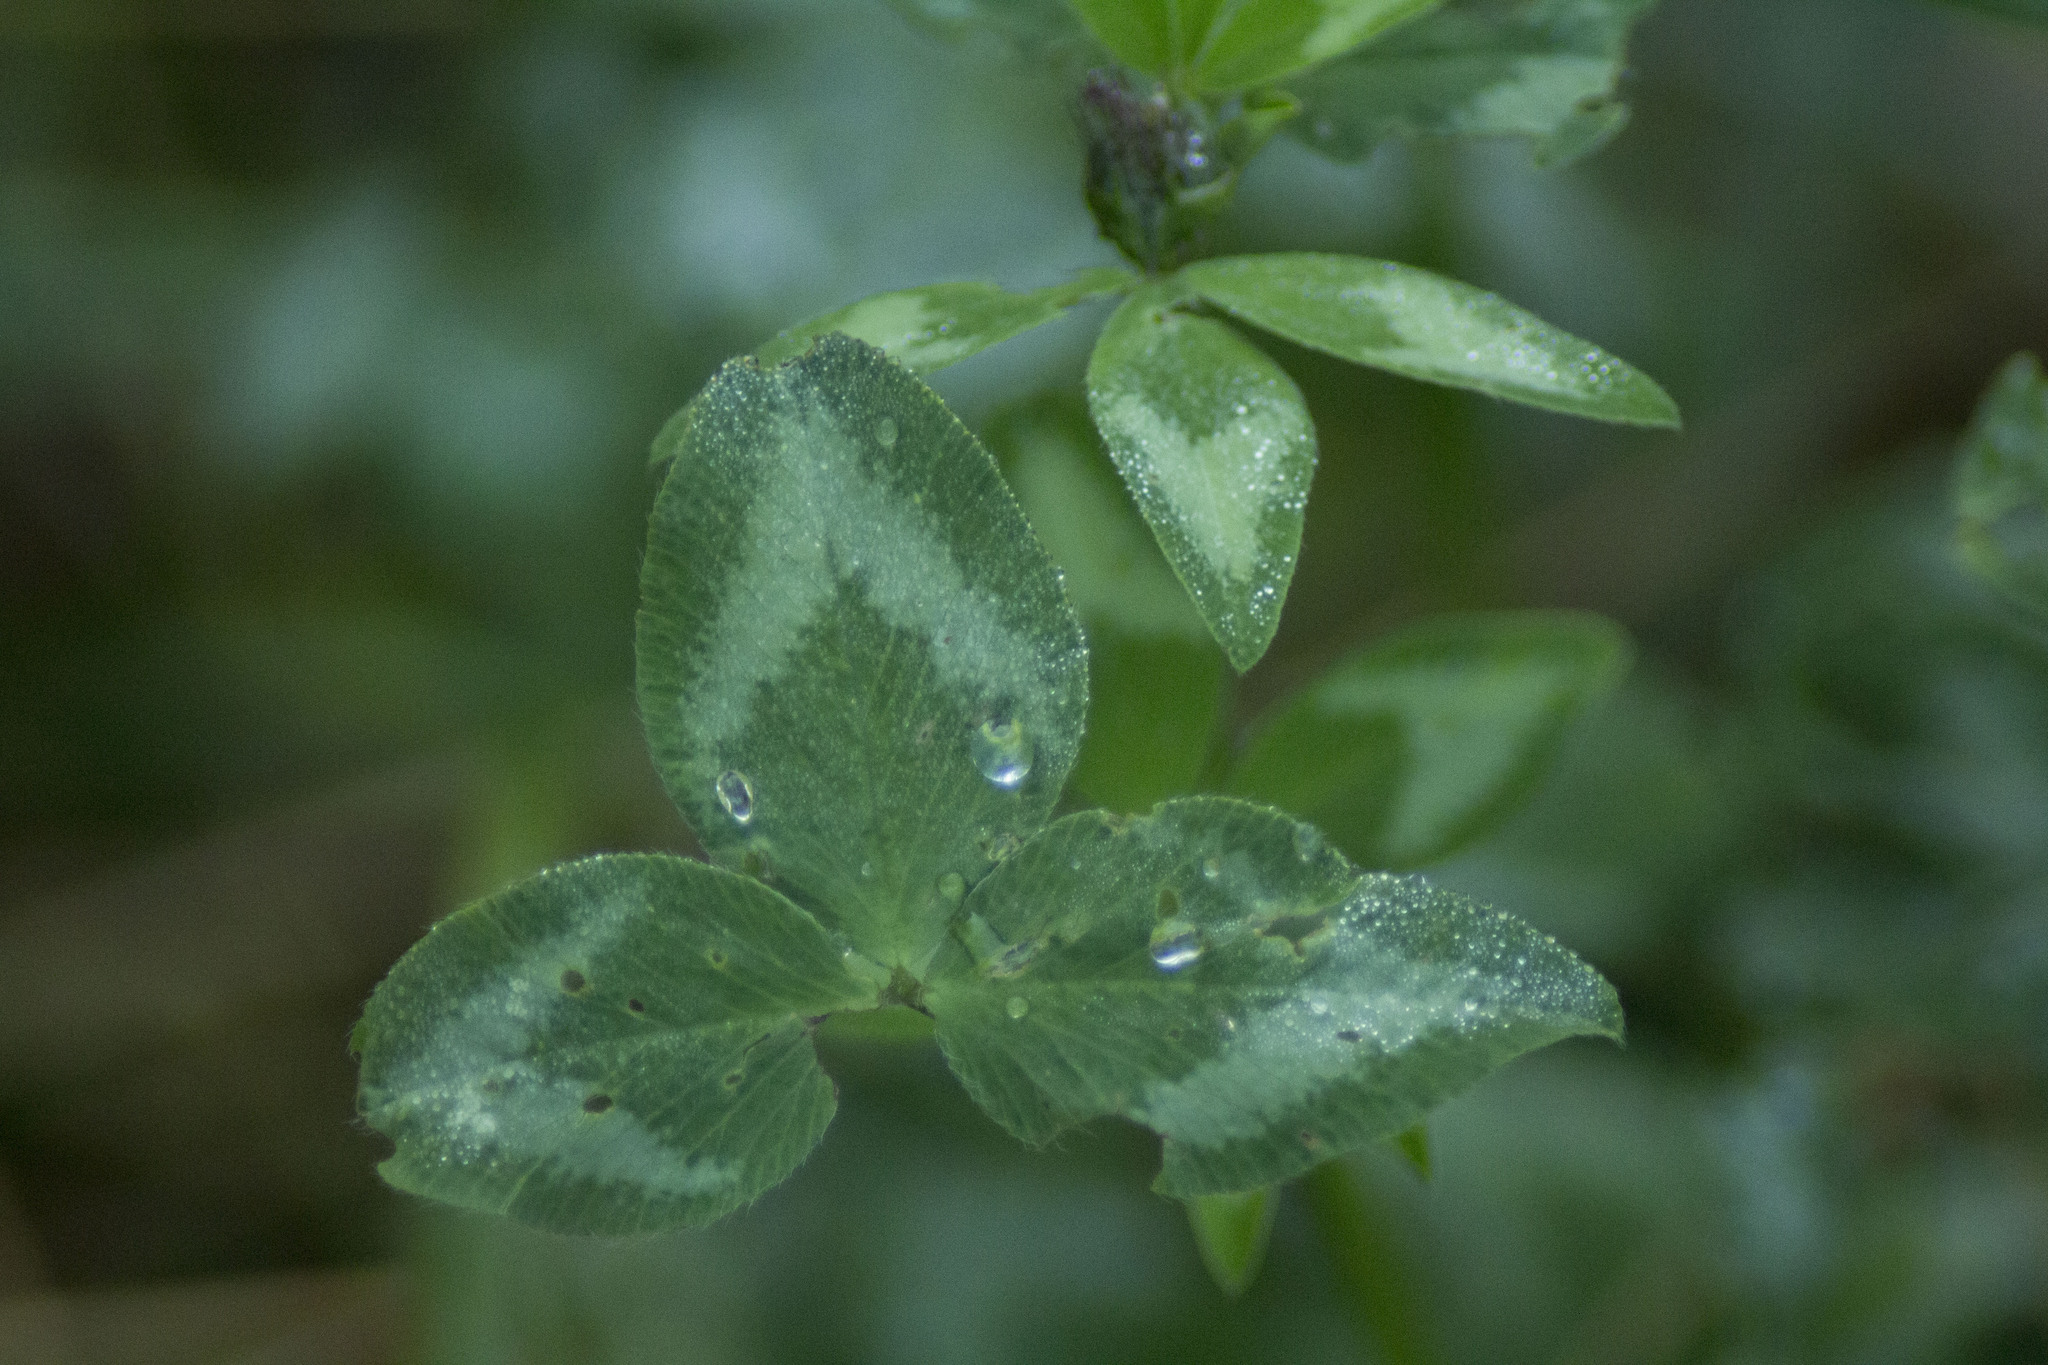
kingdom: Plantae
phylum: Tracheophyta
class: Magnoliopsida
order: Fabales
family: Fabaceae
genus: Trifolium
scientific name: Trifolium pratense
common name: Red clover
